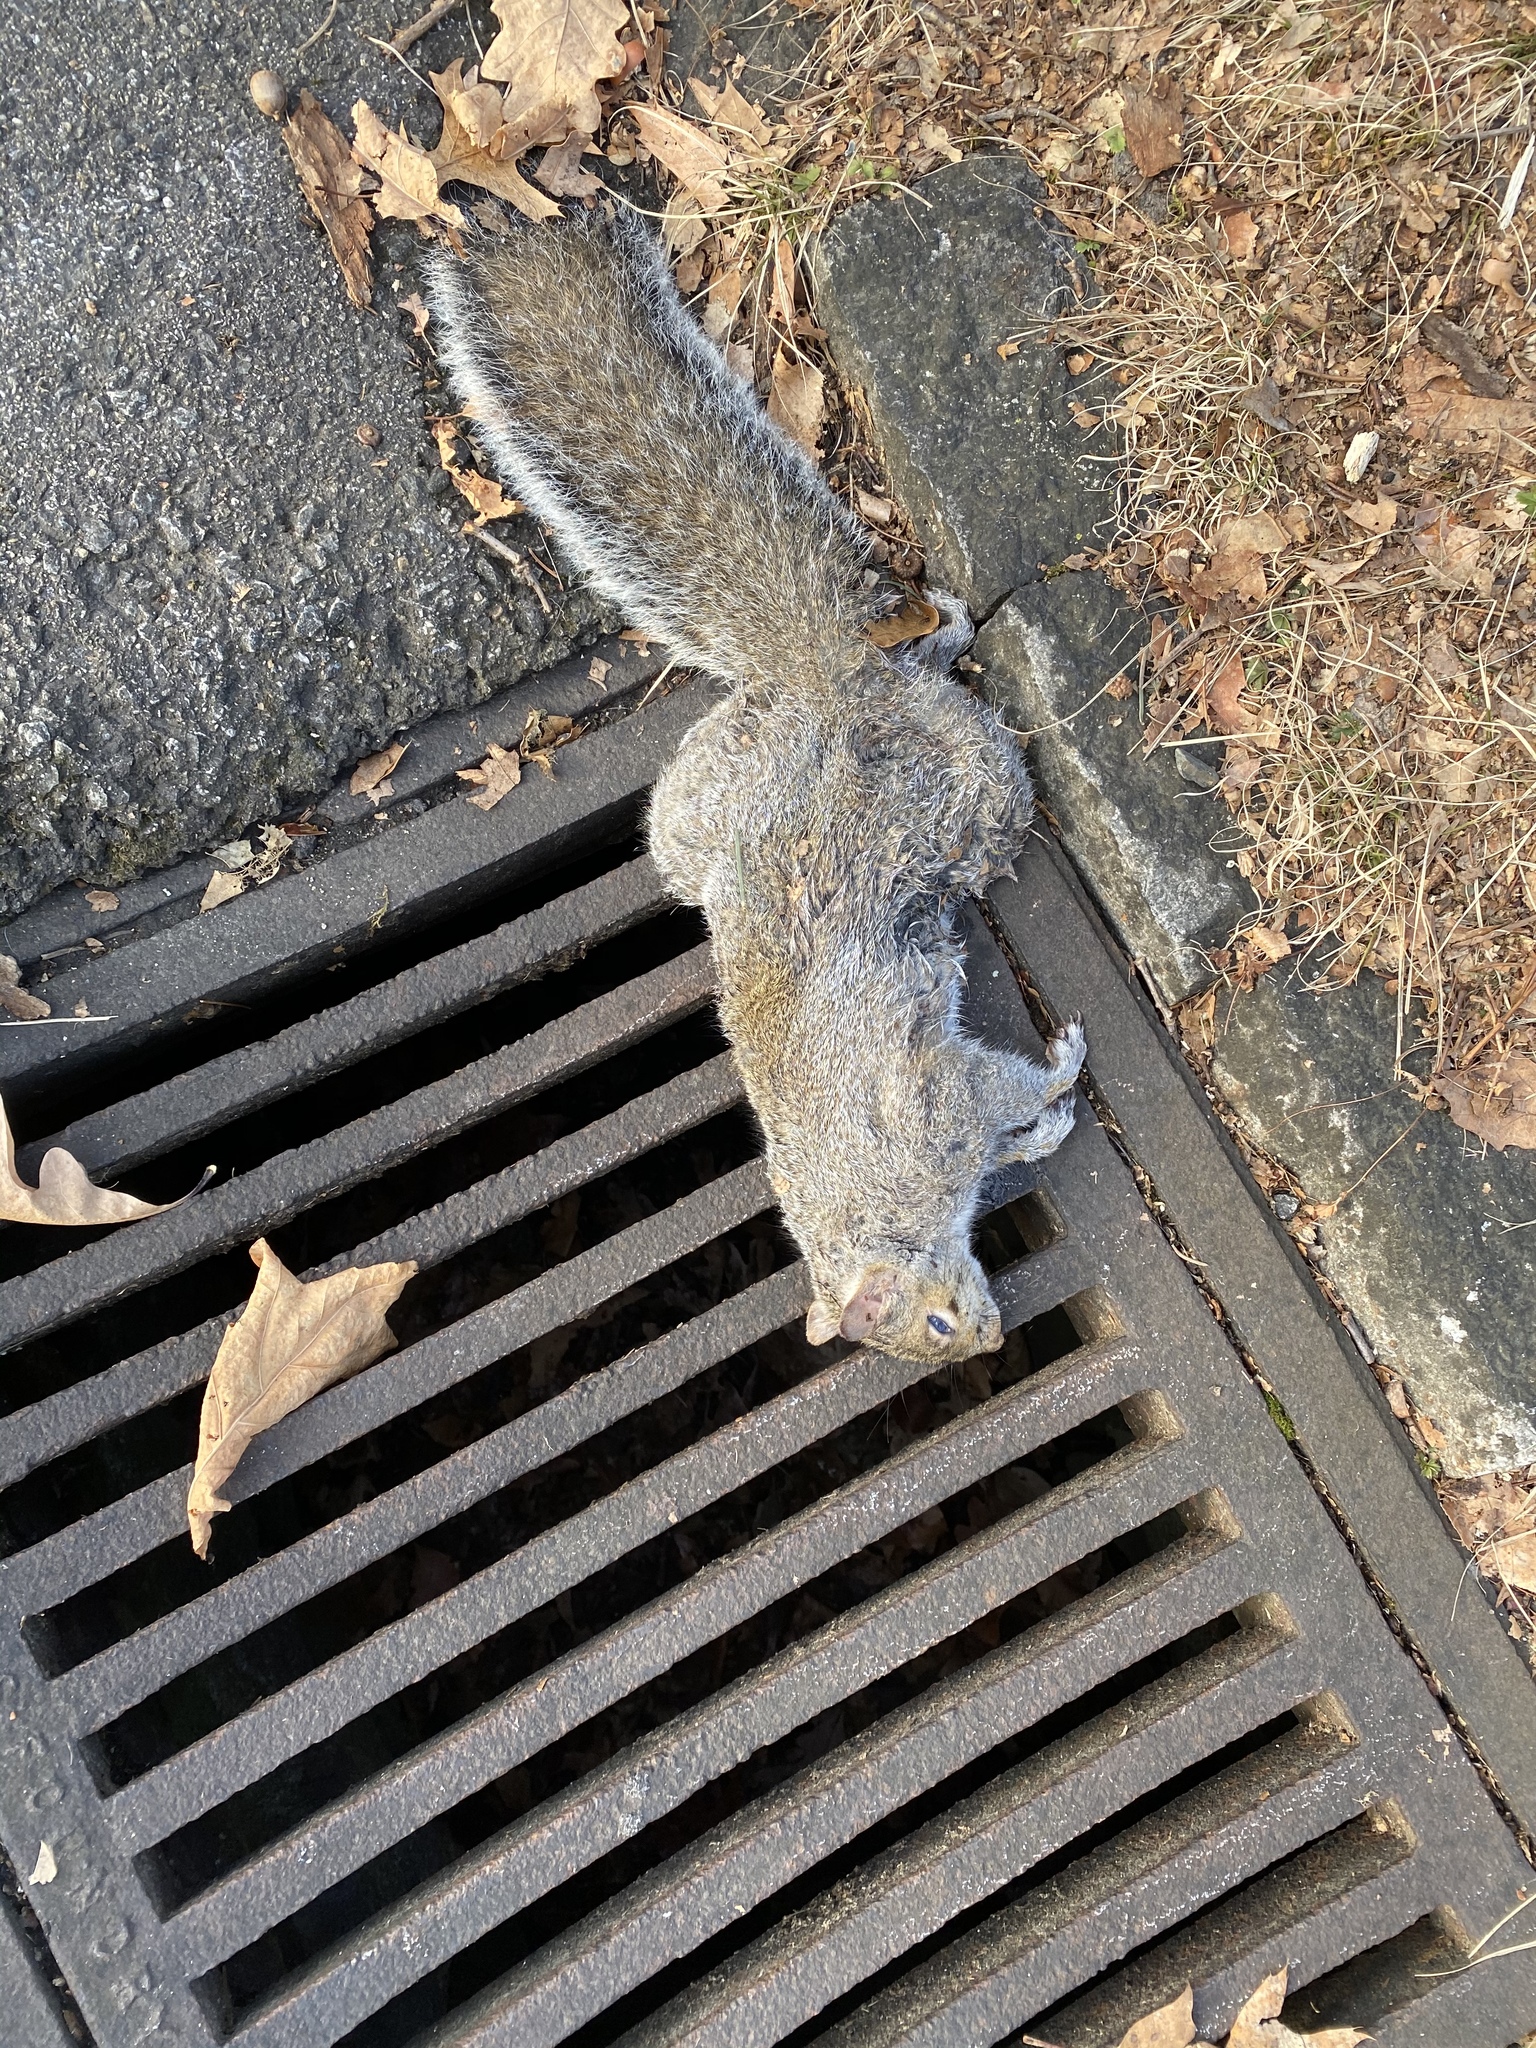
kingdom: Animalia
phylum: Chordata
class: Mammalia
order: Rodentia
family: Sciuridae
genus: Sciurus
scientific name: Sciurus carolinensis
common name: Eastern gray squirrel
